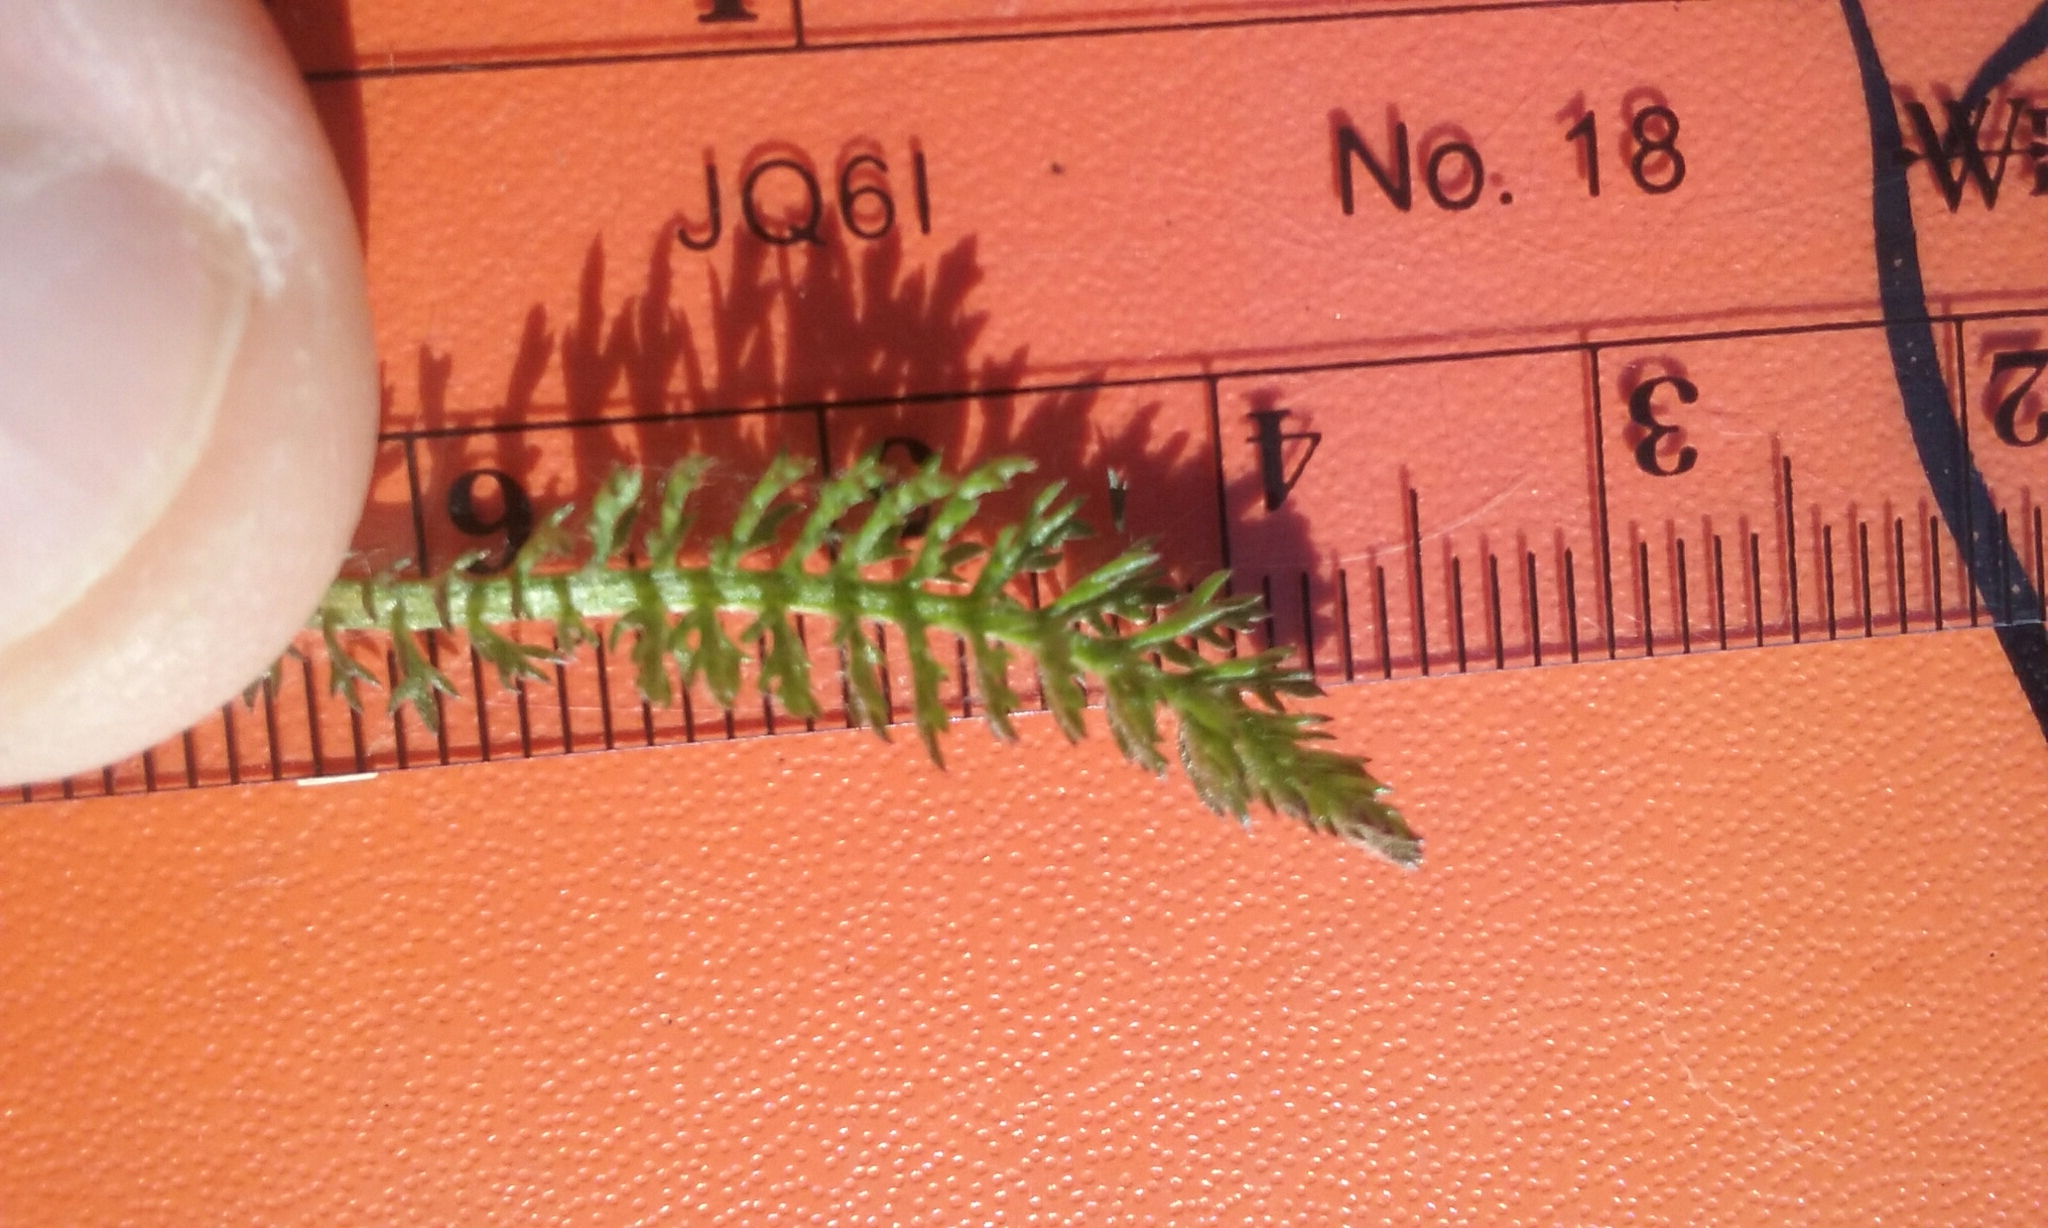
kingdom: Plantae
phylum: Tracheophyta
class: Magnoliopsida
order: Asterales
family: Asteraceae
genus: Achillea
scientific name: Achillea millefolium
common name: Yarrow
